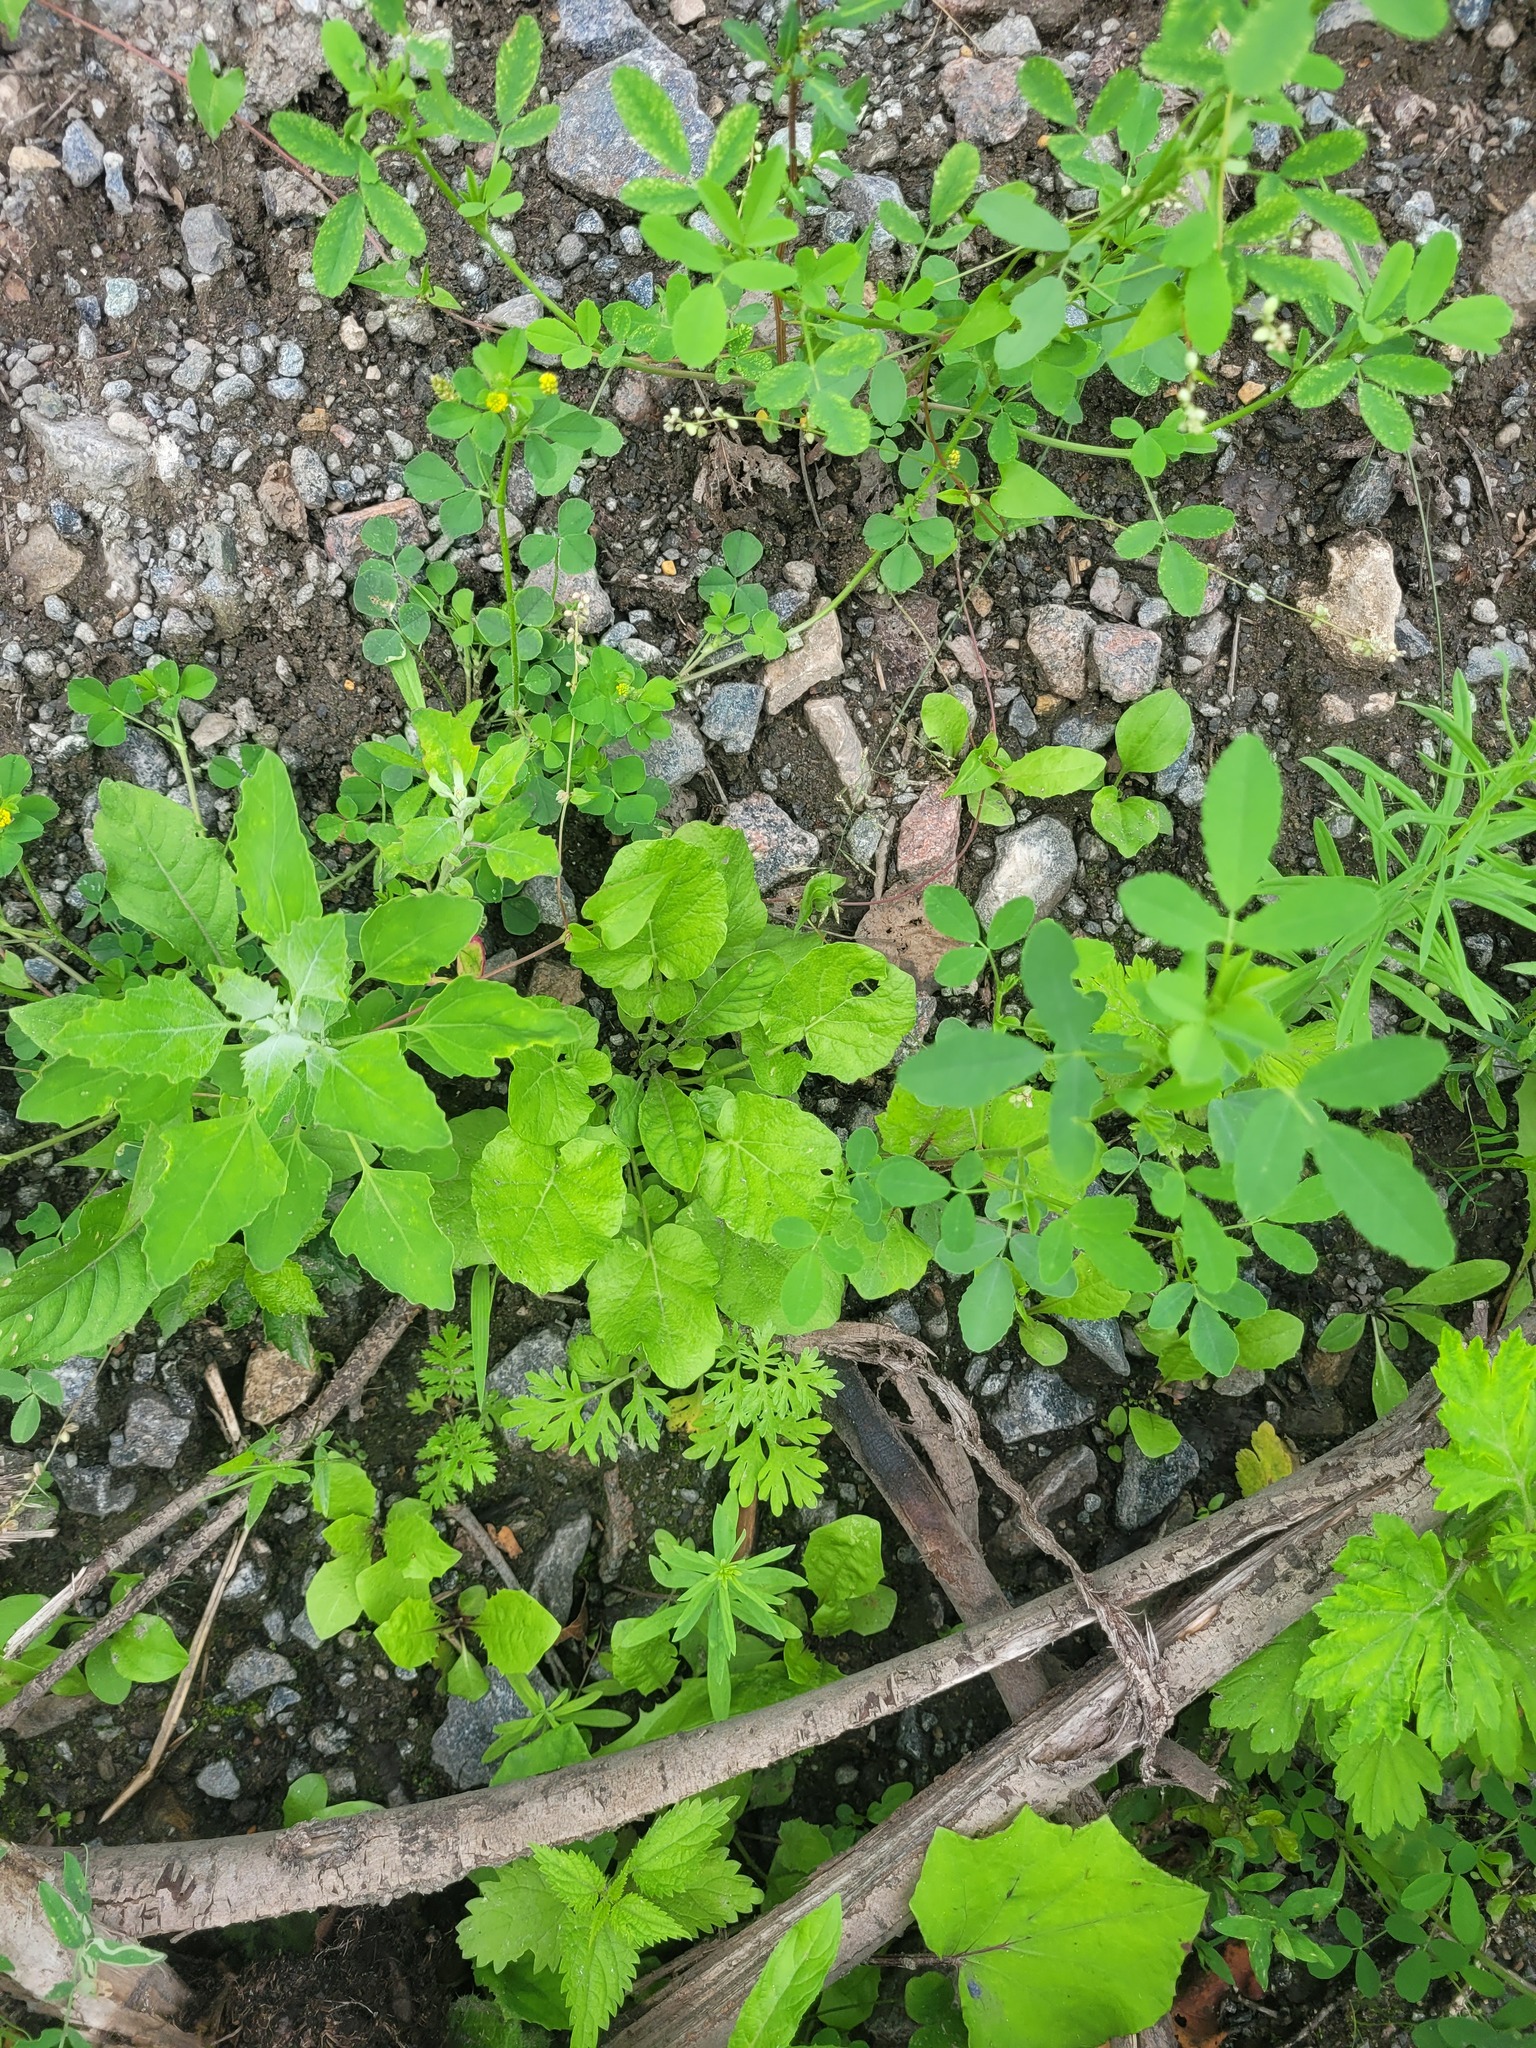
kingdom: Plantae
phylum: Tracheophyta
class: Magnoliopsida
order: Brassicales
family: Brassicaceae
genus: Barbarea
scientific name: Barbarea vulgaris
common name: Cressy-greens
